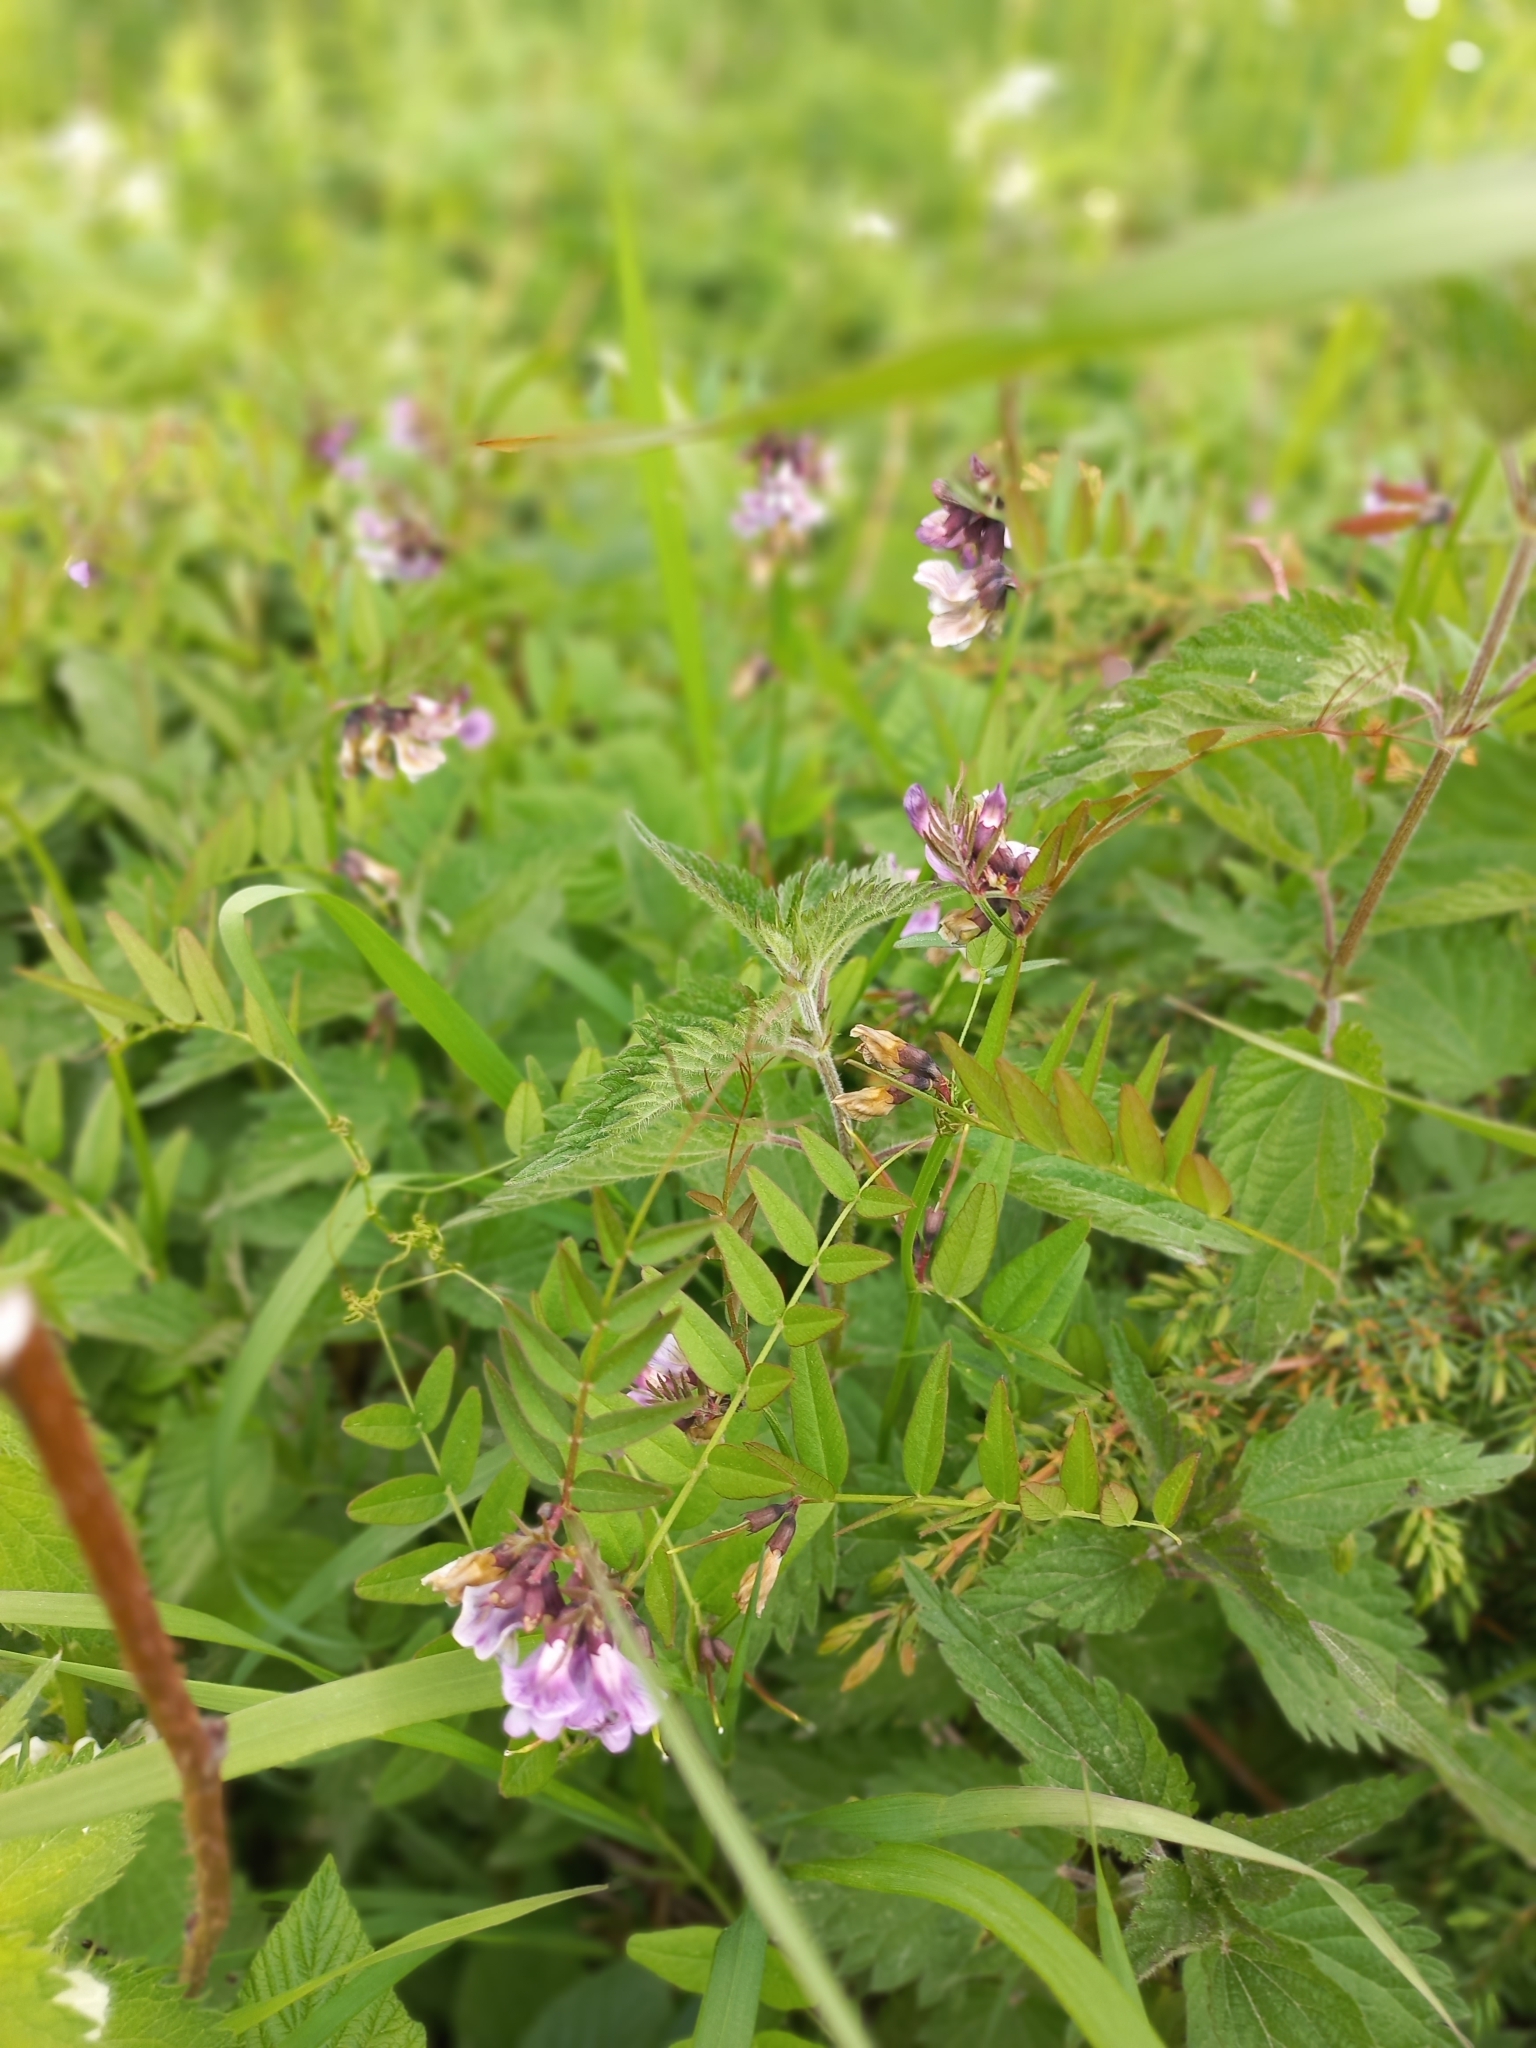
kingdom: Plantae
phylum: Tracheophyta
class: Magnoliopsida
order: Fabales
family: Fabaceae
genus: Vicia
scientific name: Vicia sepium
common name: Bush vetch
